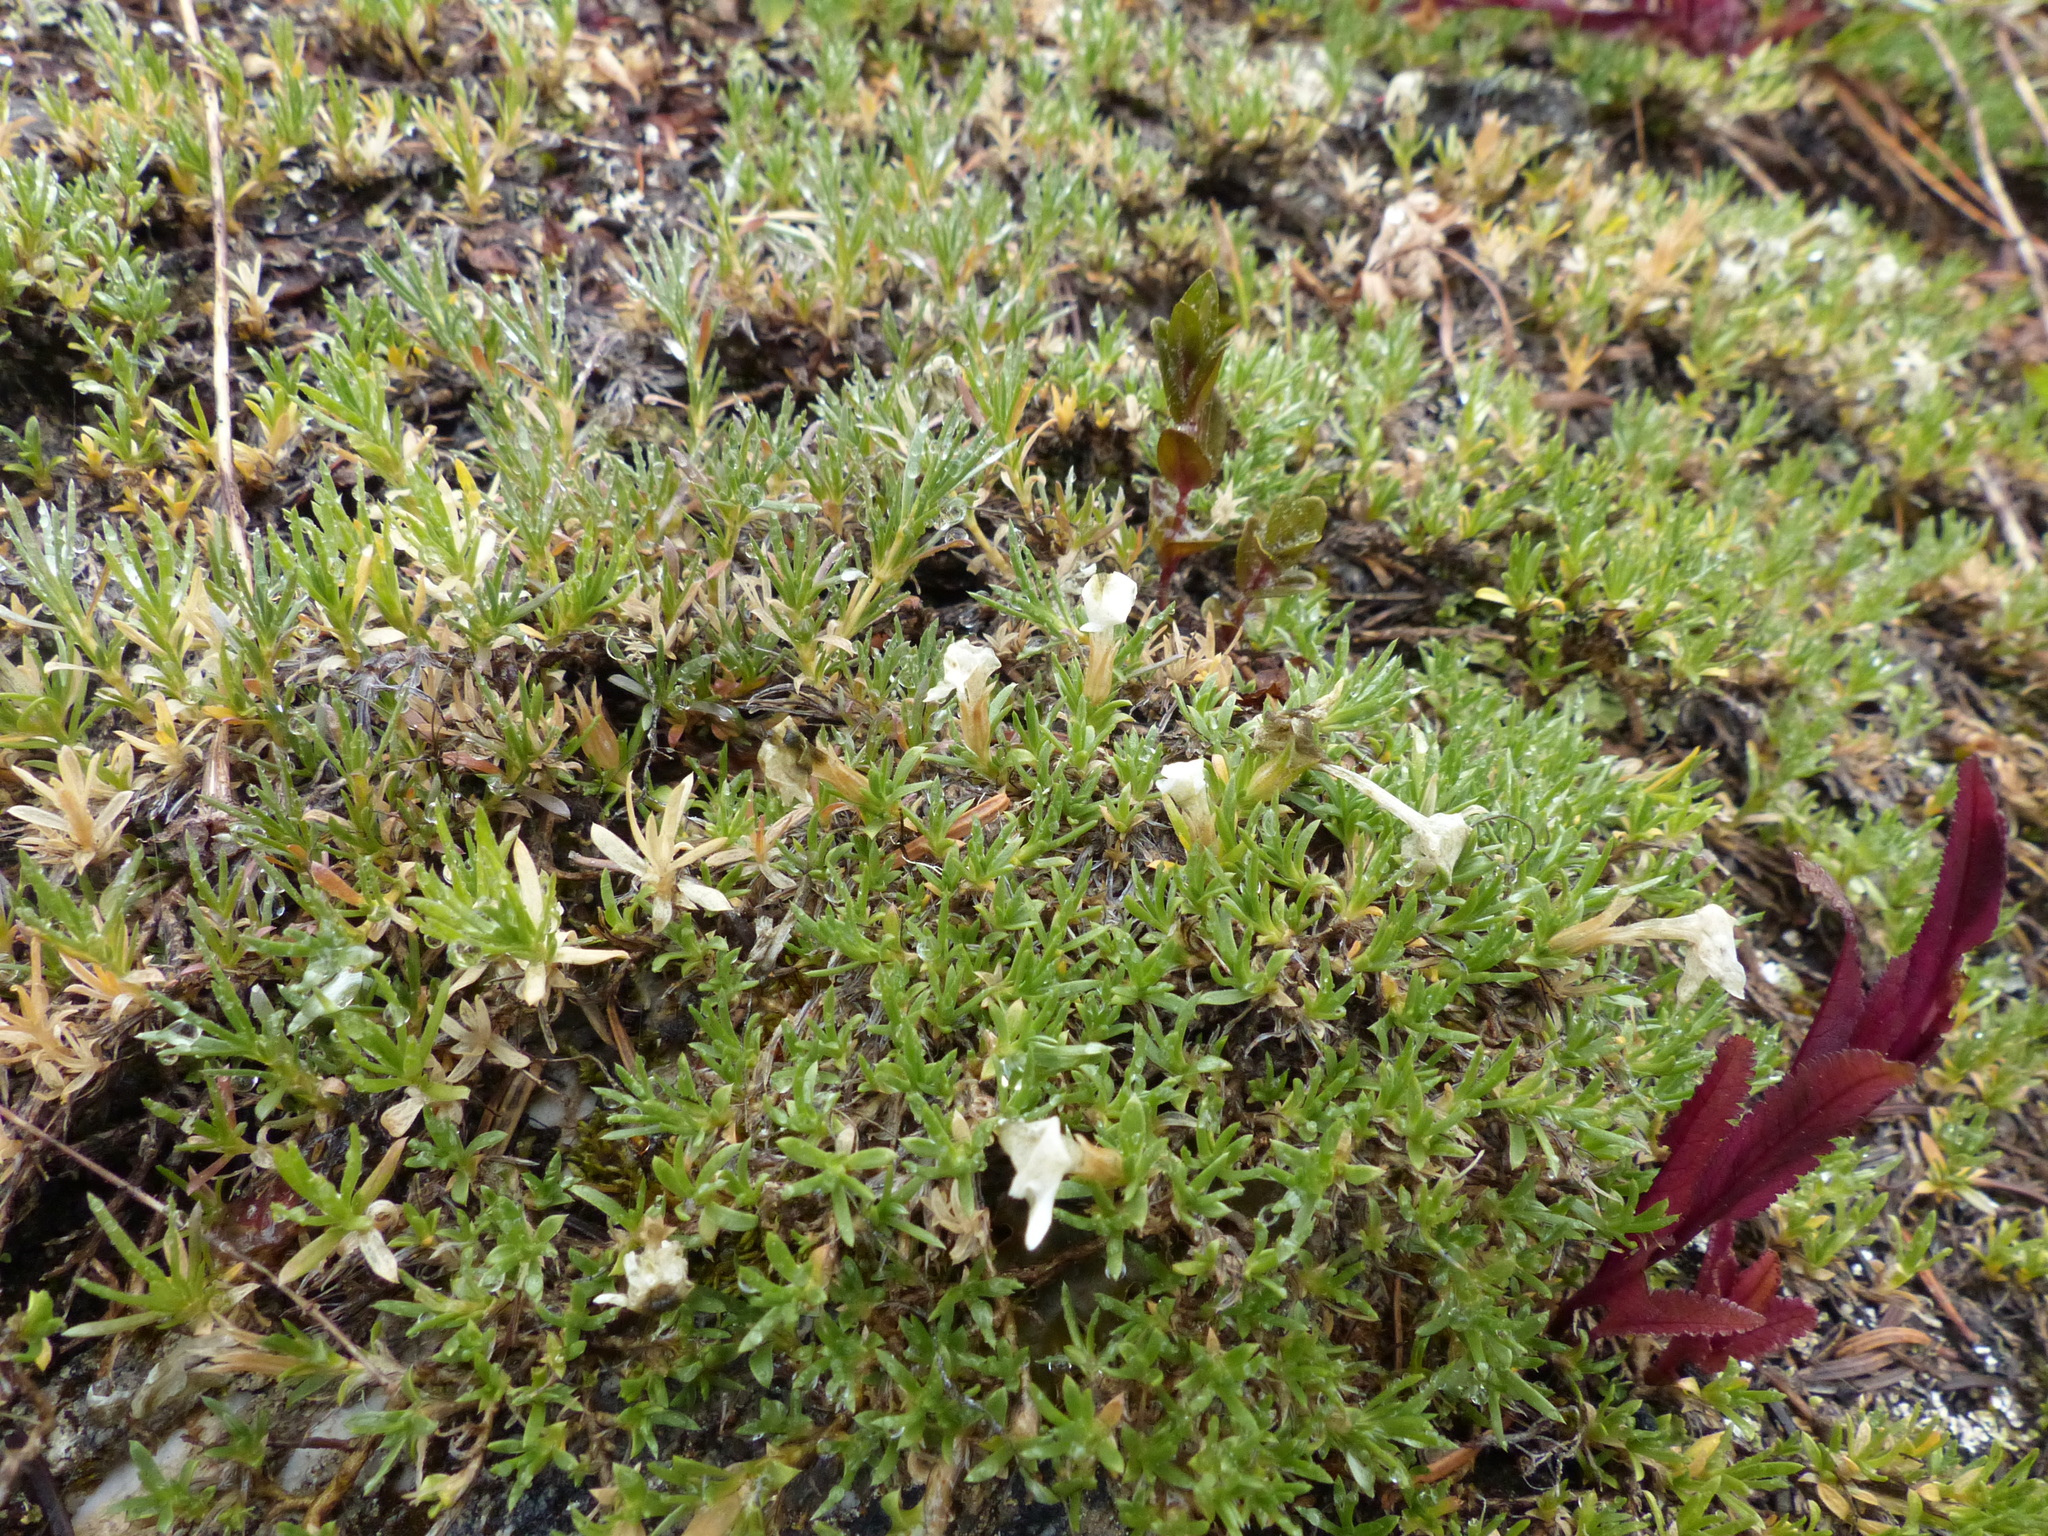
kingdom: Plantae
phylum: Tracheophyta
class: Magnoliopsida
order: Ericales
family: Polemoniaceae
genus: Phlox
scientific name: Phlox diffusa
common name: Mat phlox
